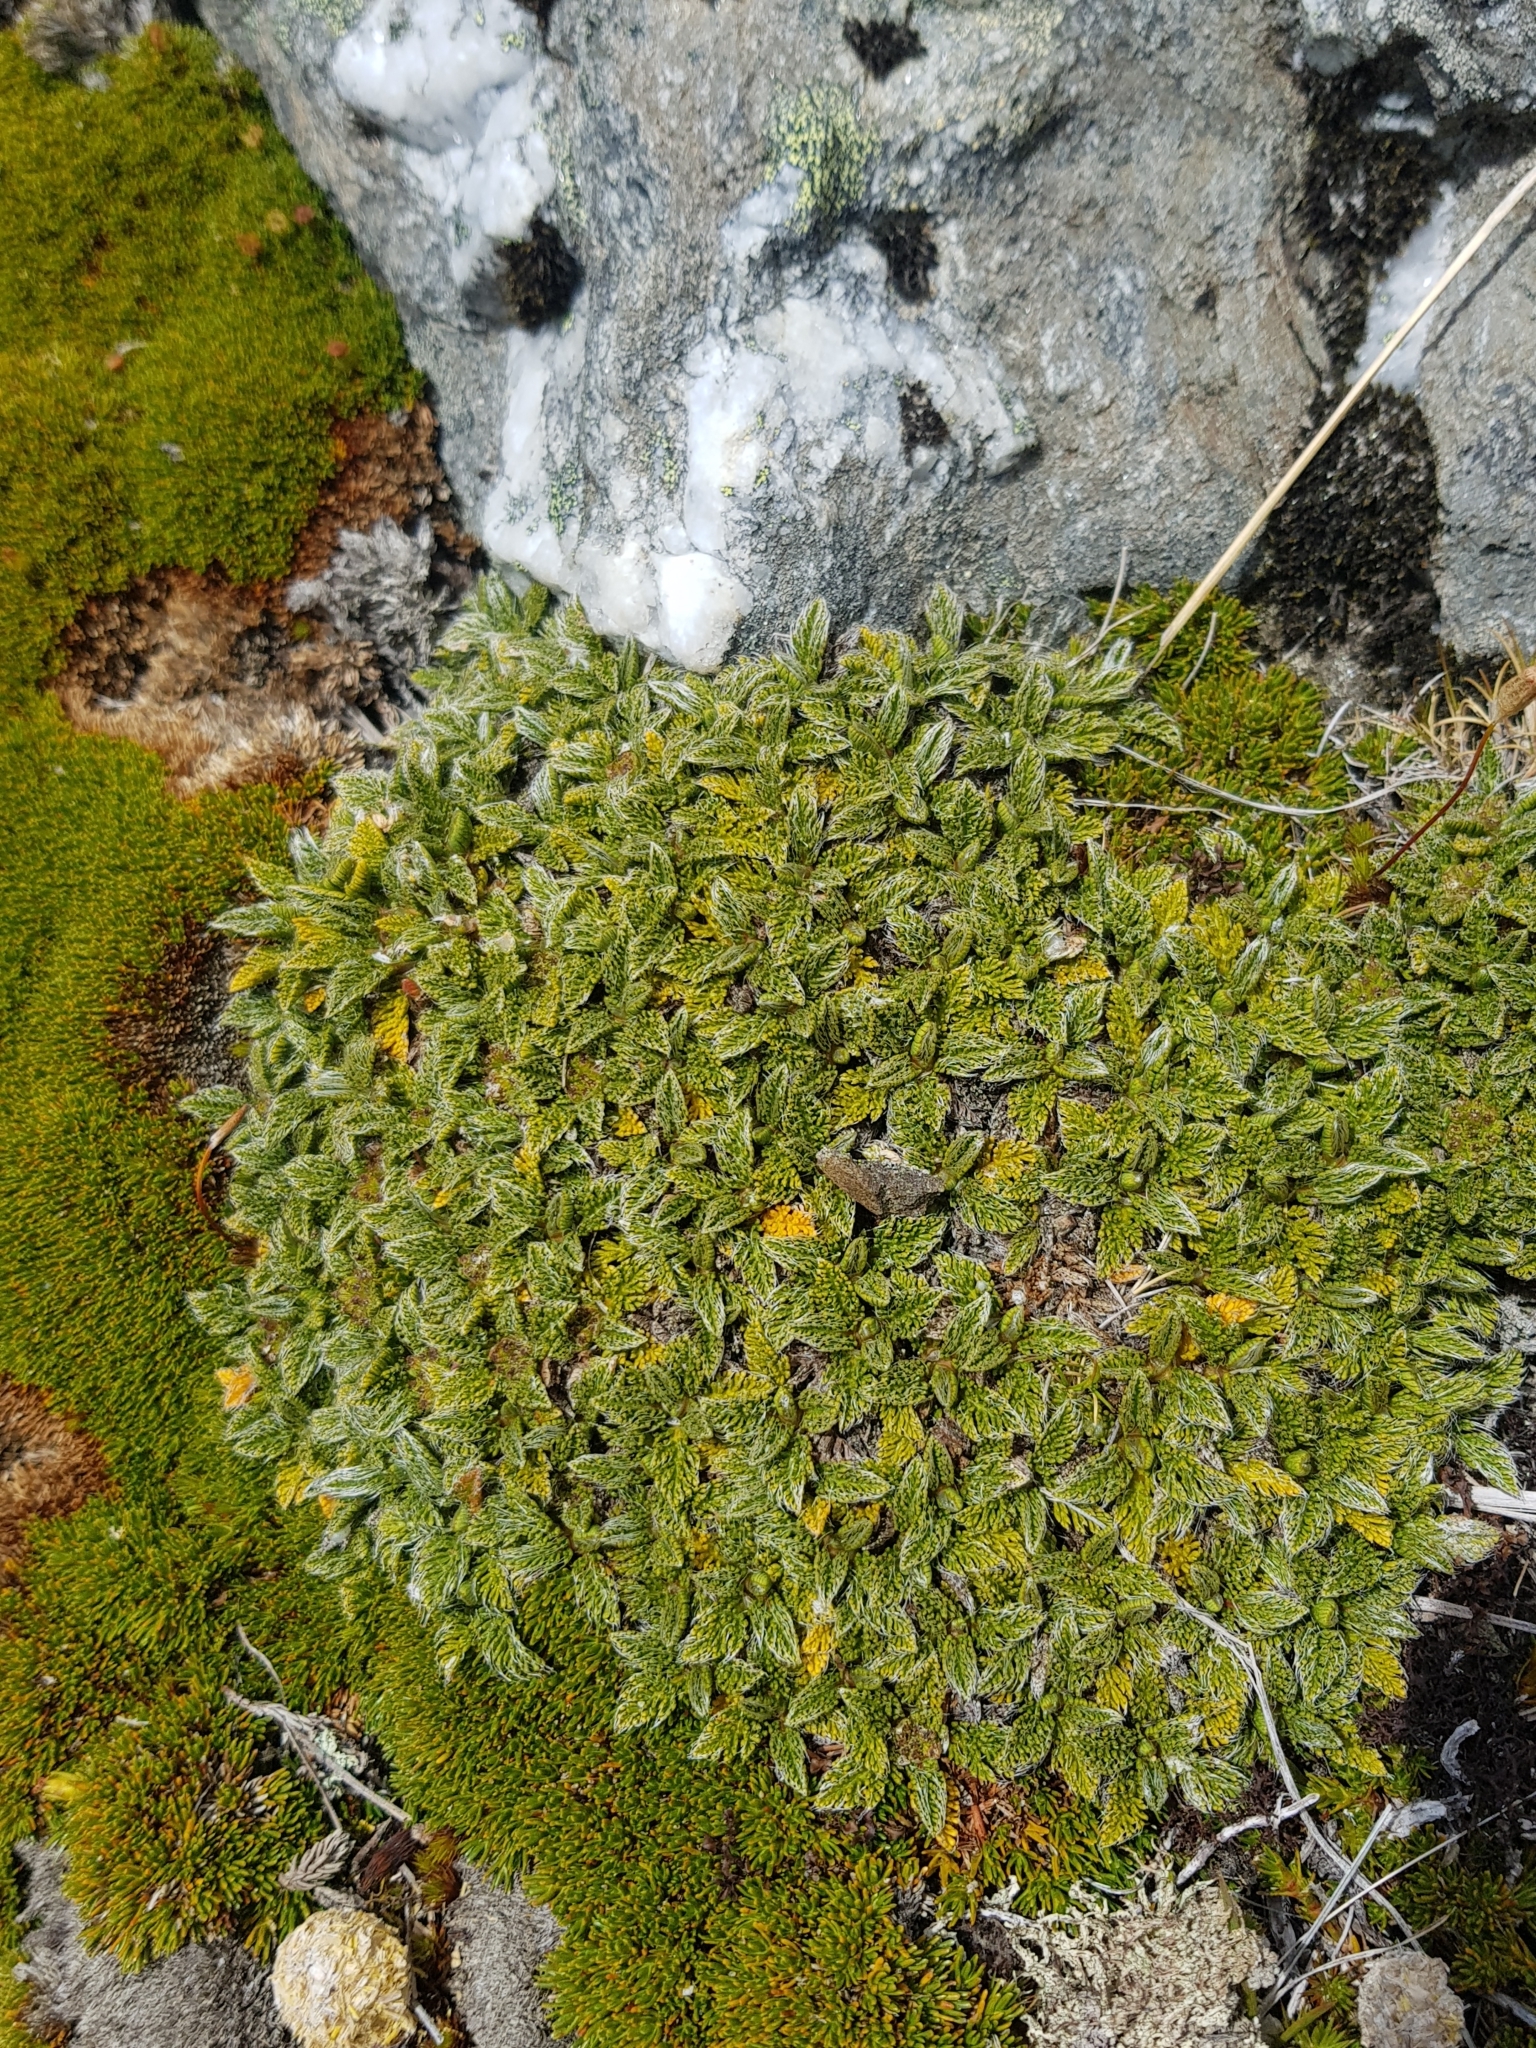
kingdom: Plantae
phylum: Tracheophyta
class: Magnoliopsida
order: Apiales
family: Apiaceae
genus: Anisotome
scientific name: Anisotome imbricata
